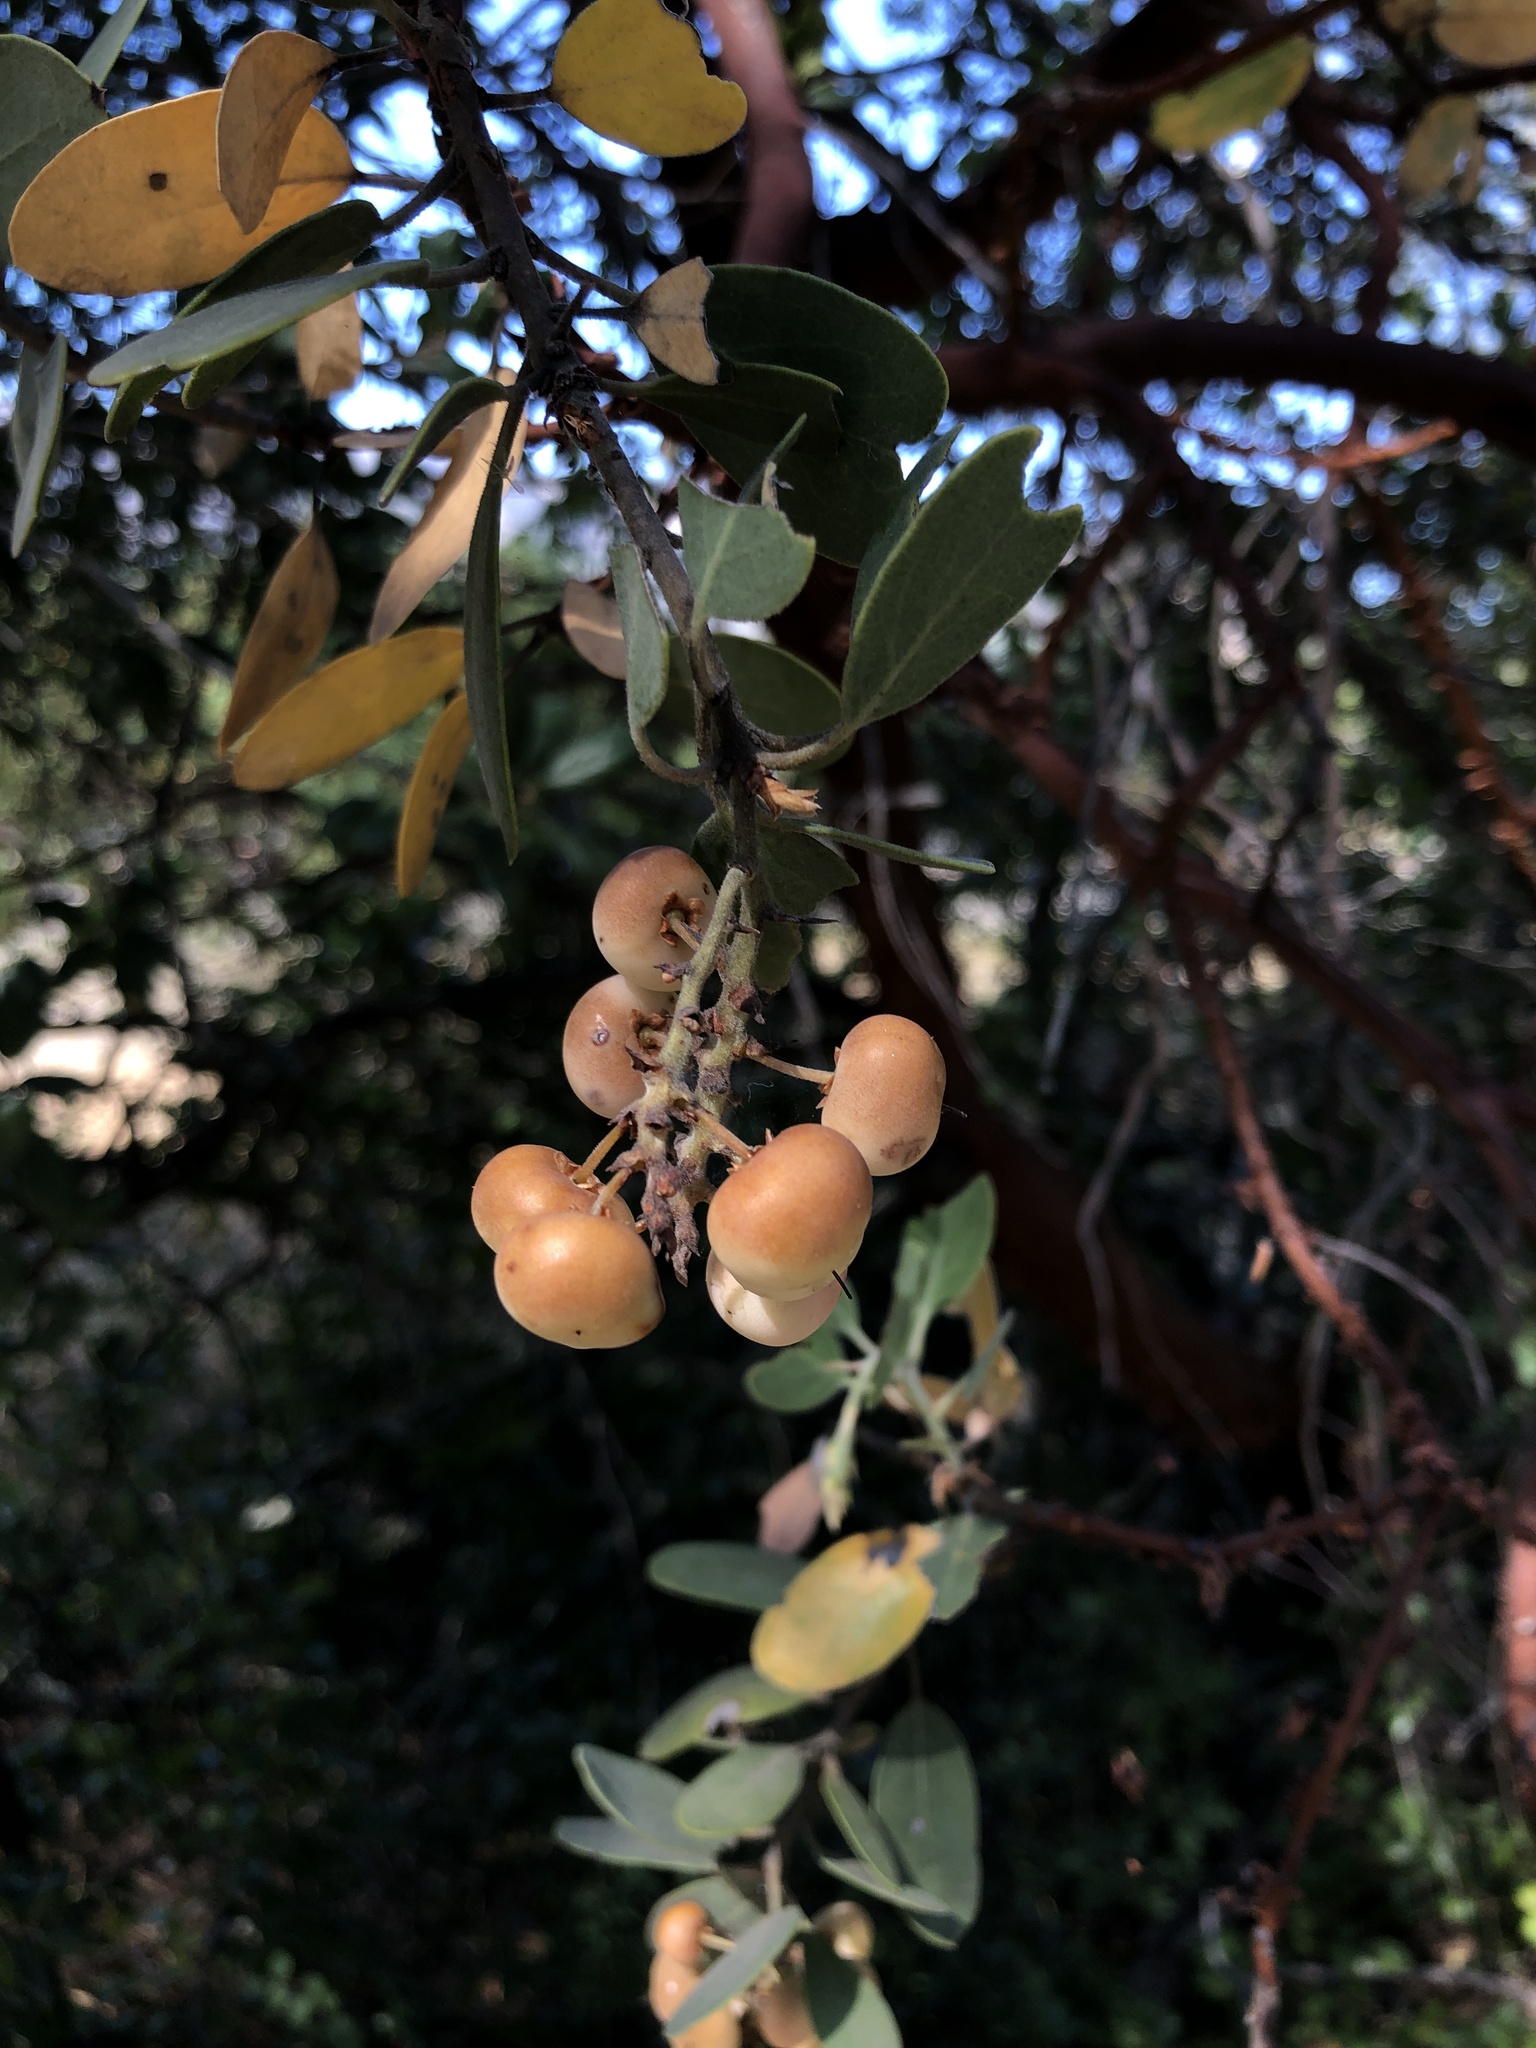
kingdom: Plantae
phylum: Tracheophyta
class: Magnoliopsida
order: Ericales
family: Ericaceae
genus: Arctostaphylos
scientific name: Arctostaphylos manzanita
